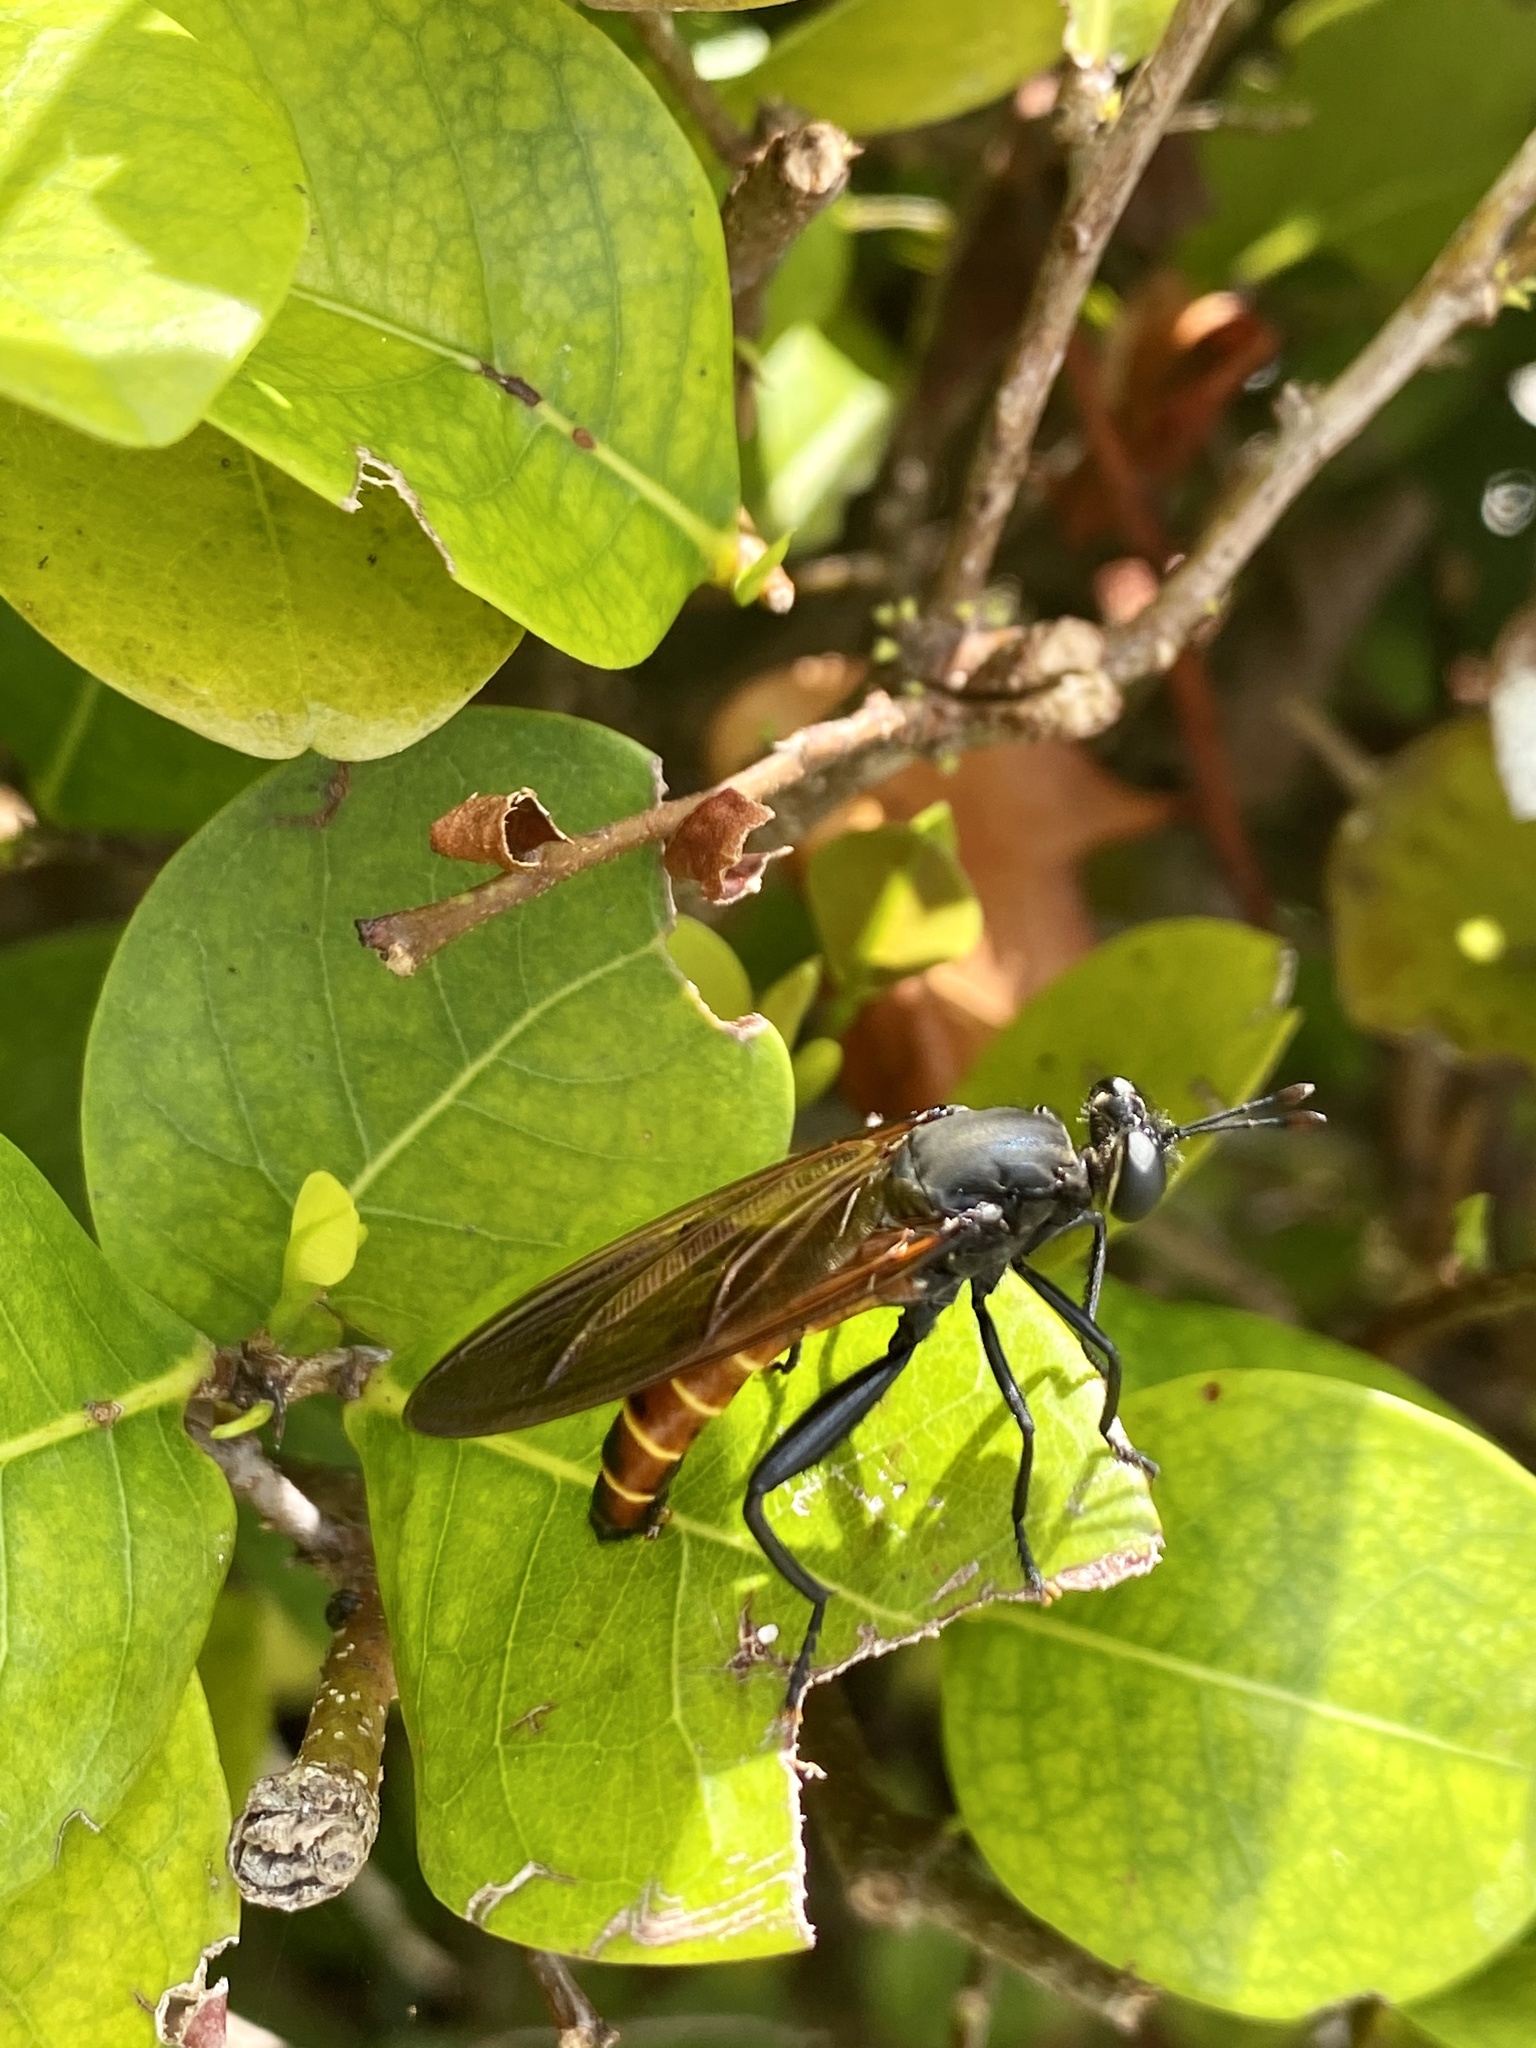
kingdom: Animalia
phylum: Arthropoda
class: Insecta
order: Diptera
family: Mydidae
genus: Mydas
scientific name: Mydas maculiventris
